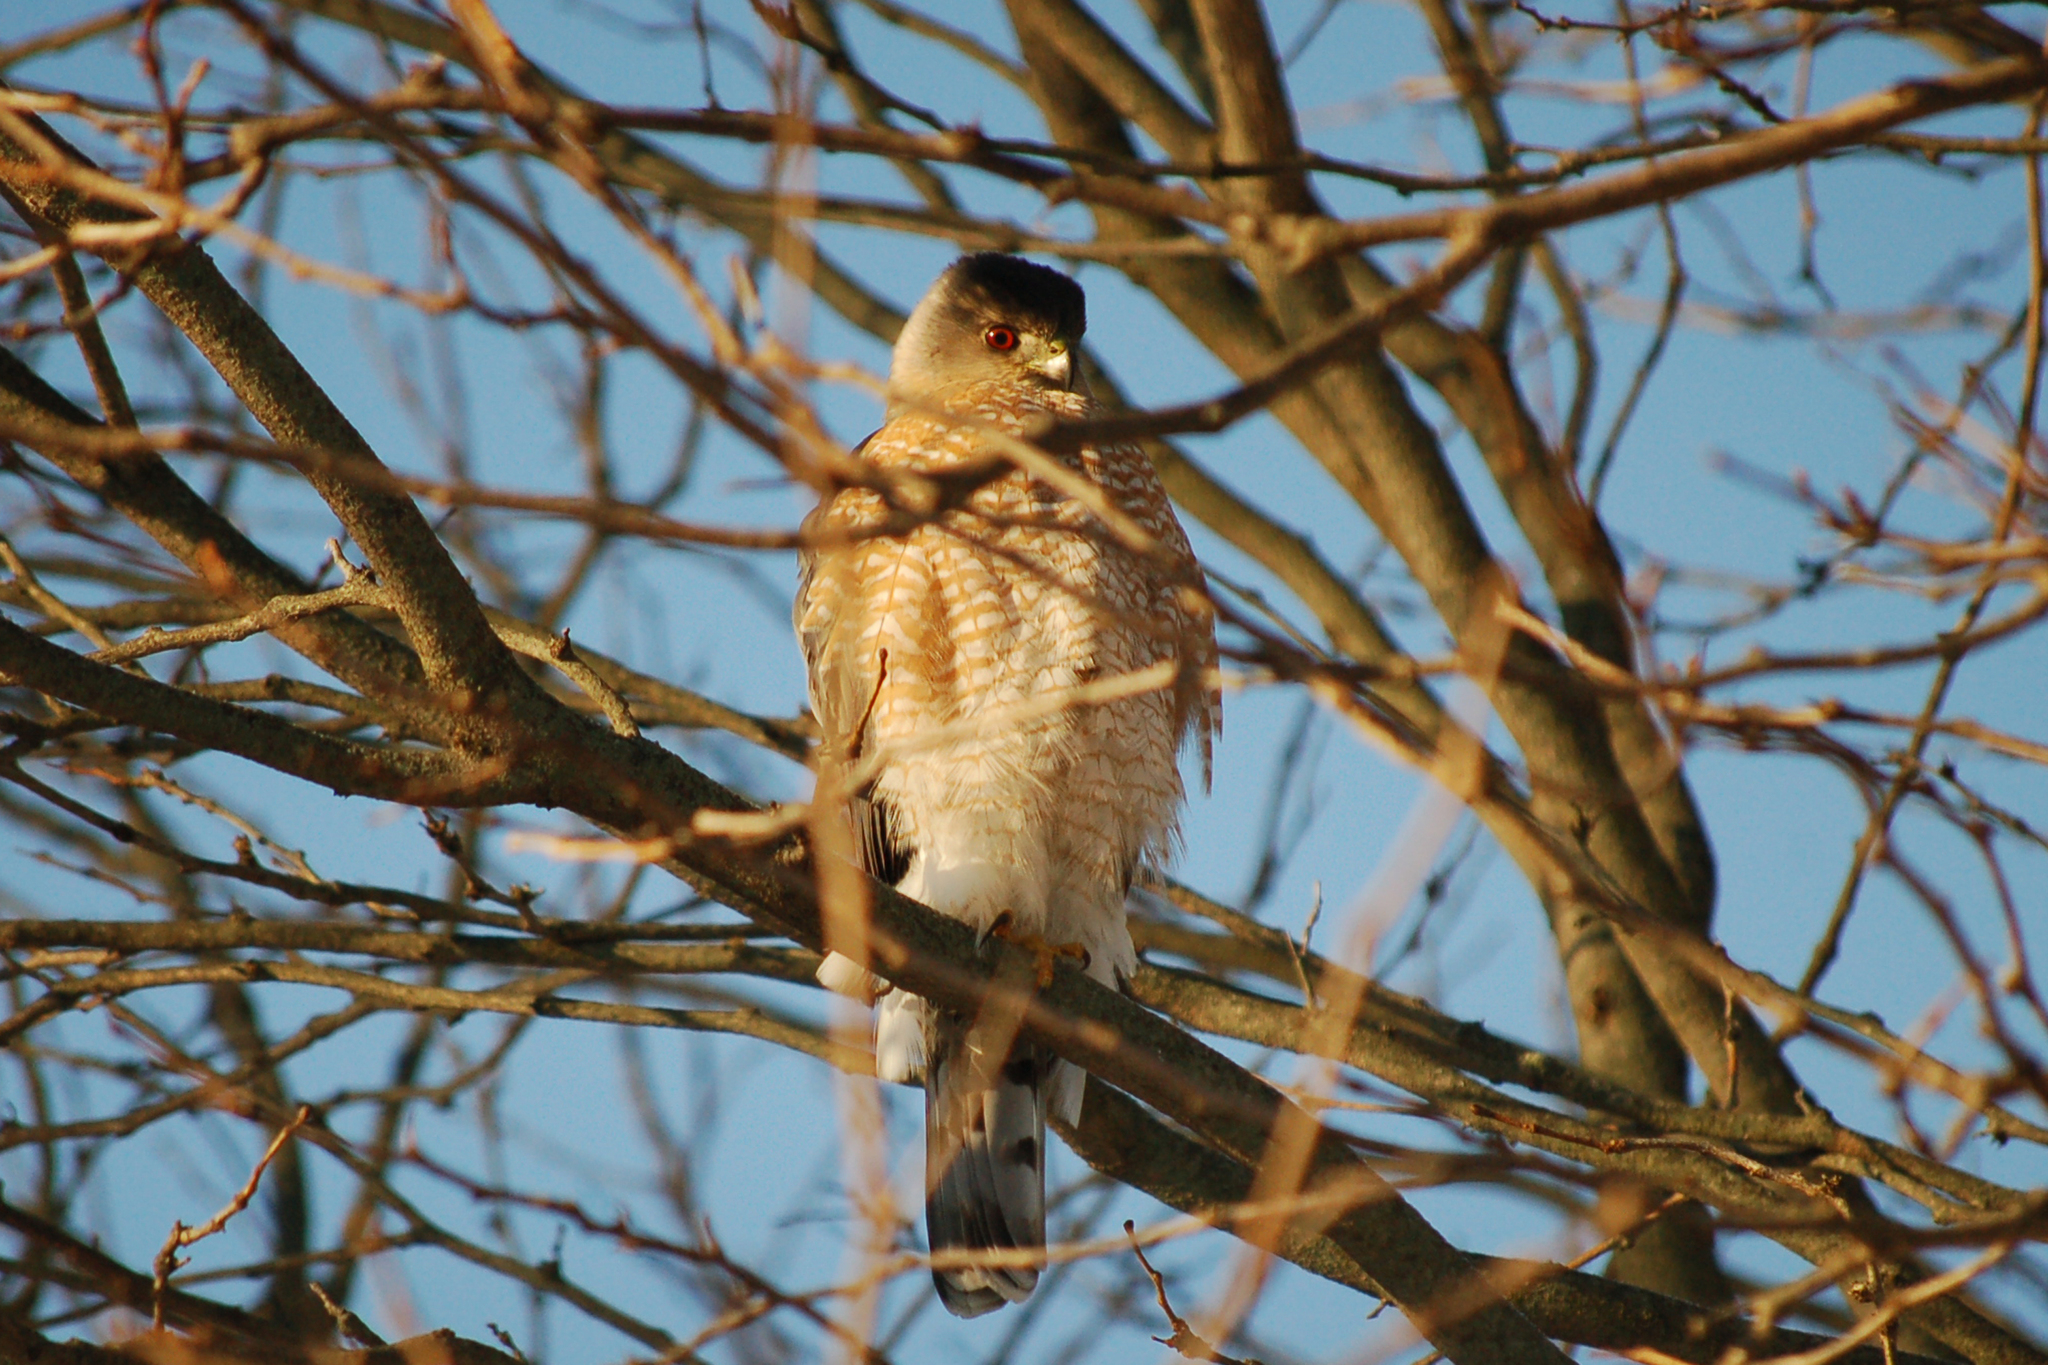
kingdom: Animalia
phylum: Chordata
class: Aves
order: Accipitriformes
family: Accipitridae
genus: Accipiter
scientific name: Accipiter cooperii
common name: Cooper's hawk
